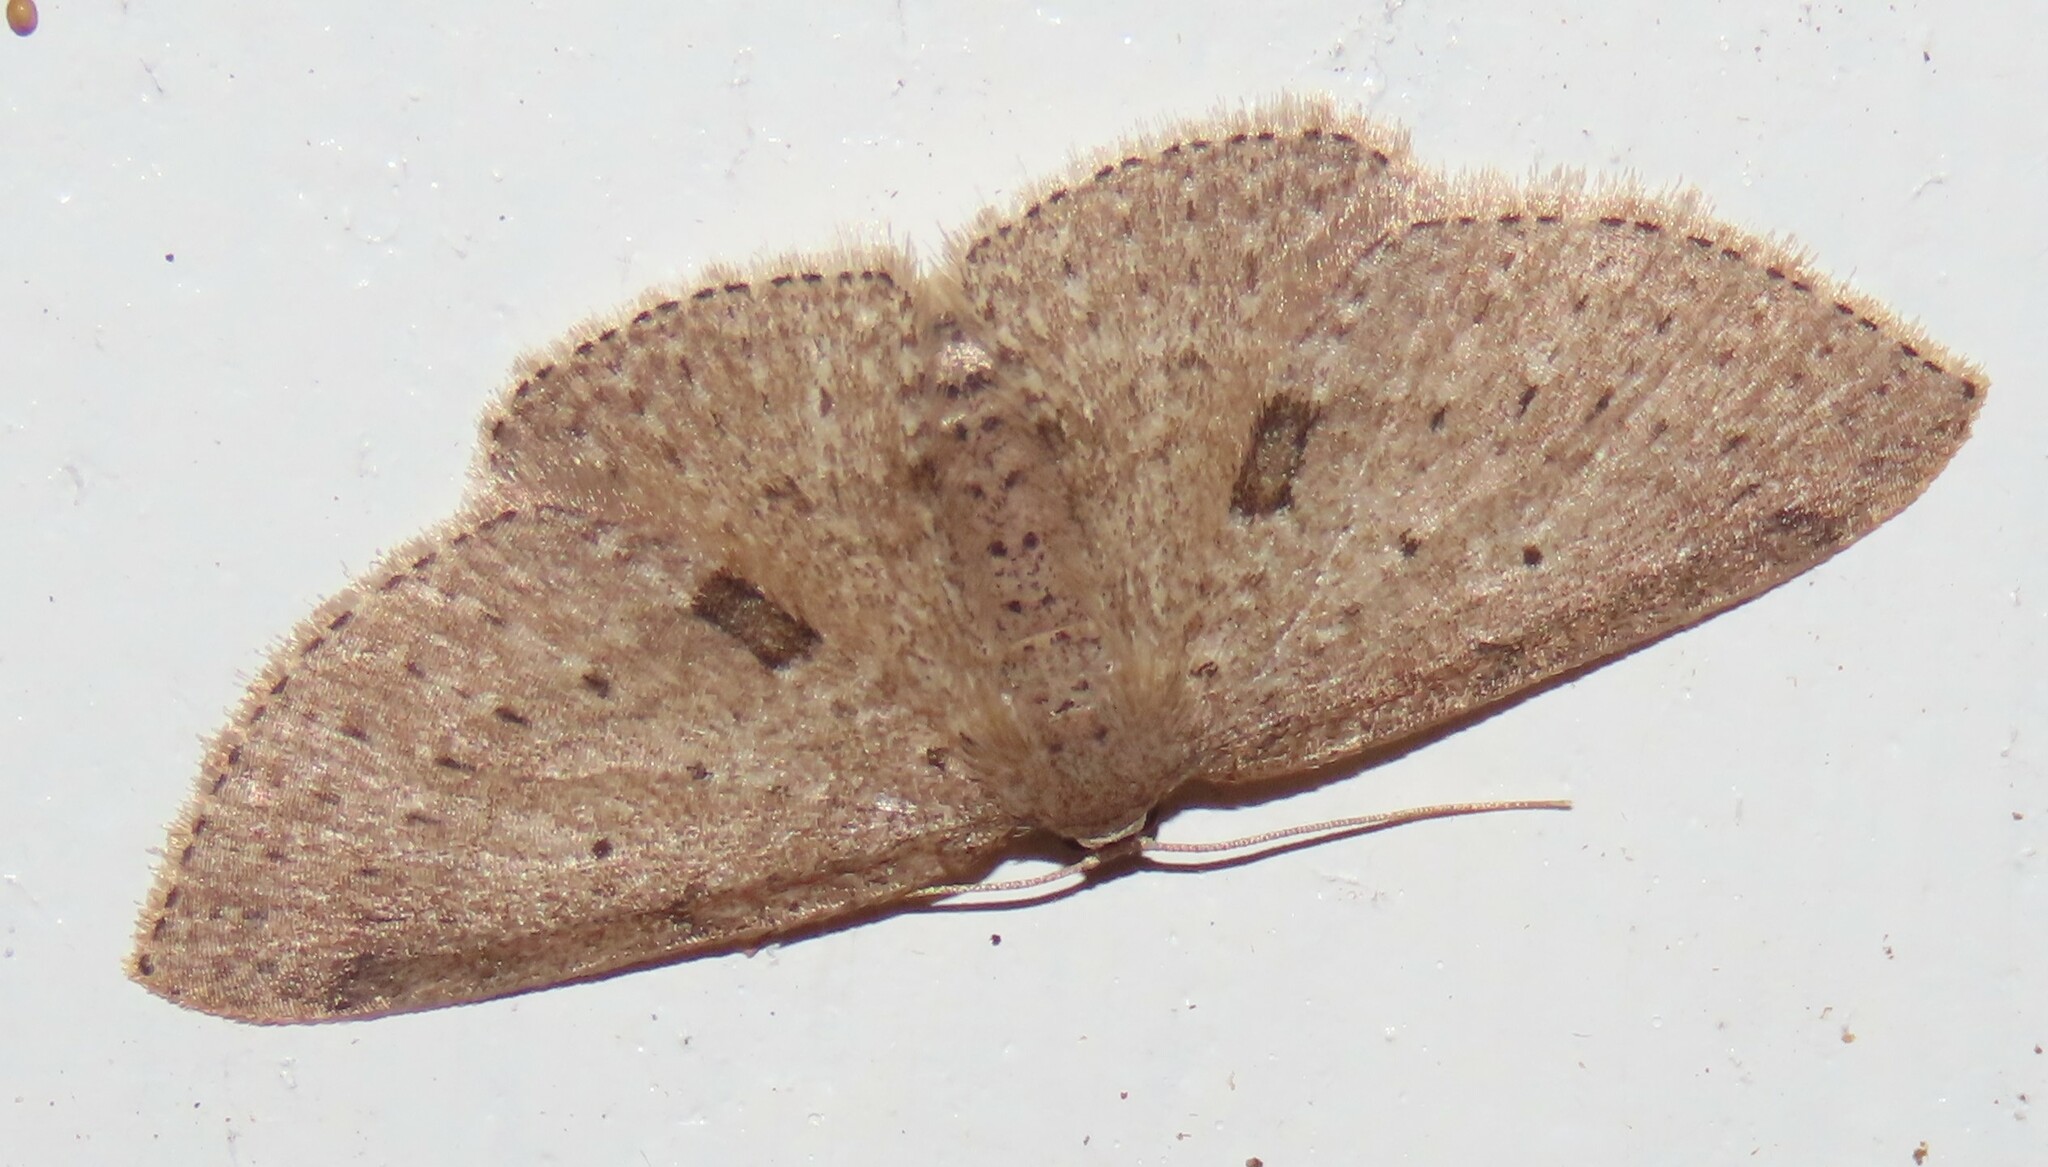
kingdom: Animalia
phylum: Arthropoda
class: Insecta
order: Lepidoptera
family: Geometridae
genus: Poecilasthena
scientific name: Poecilasthena schistaria
